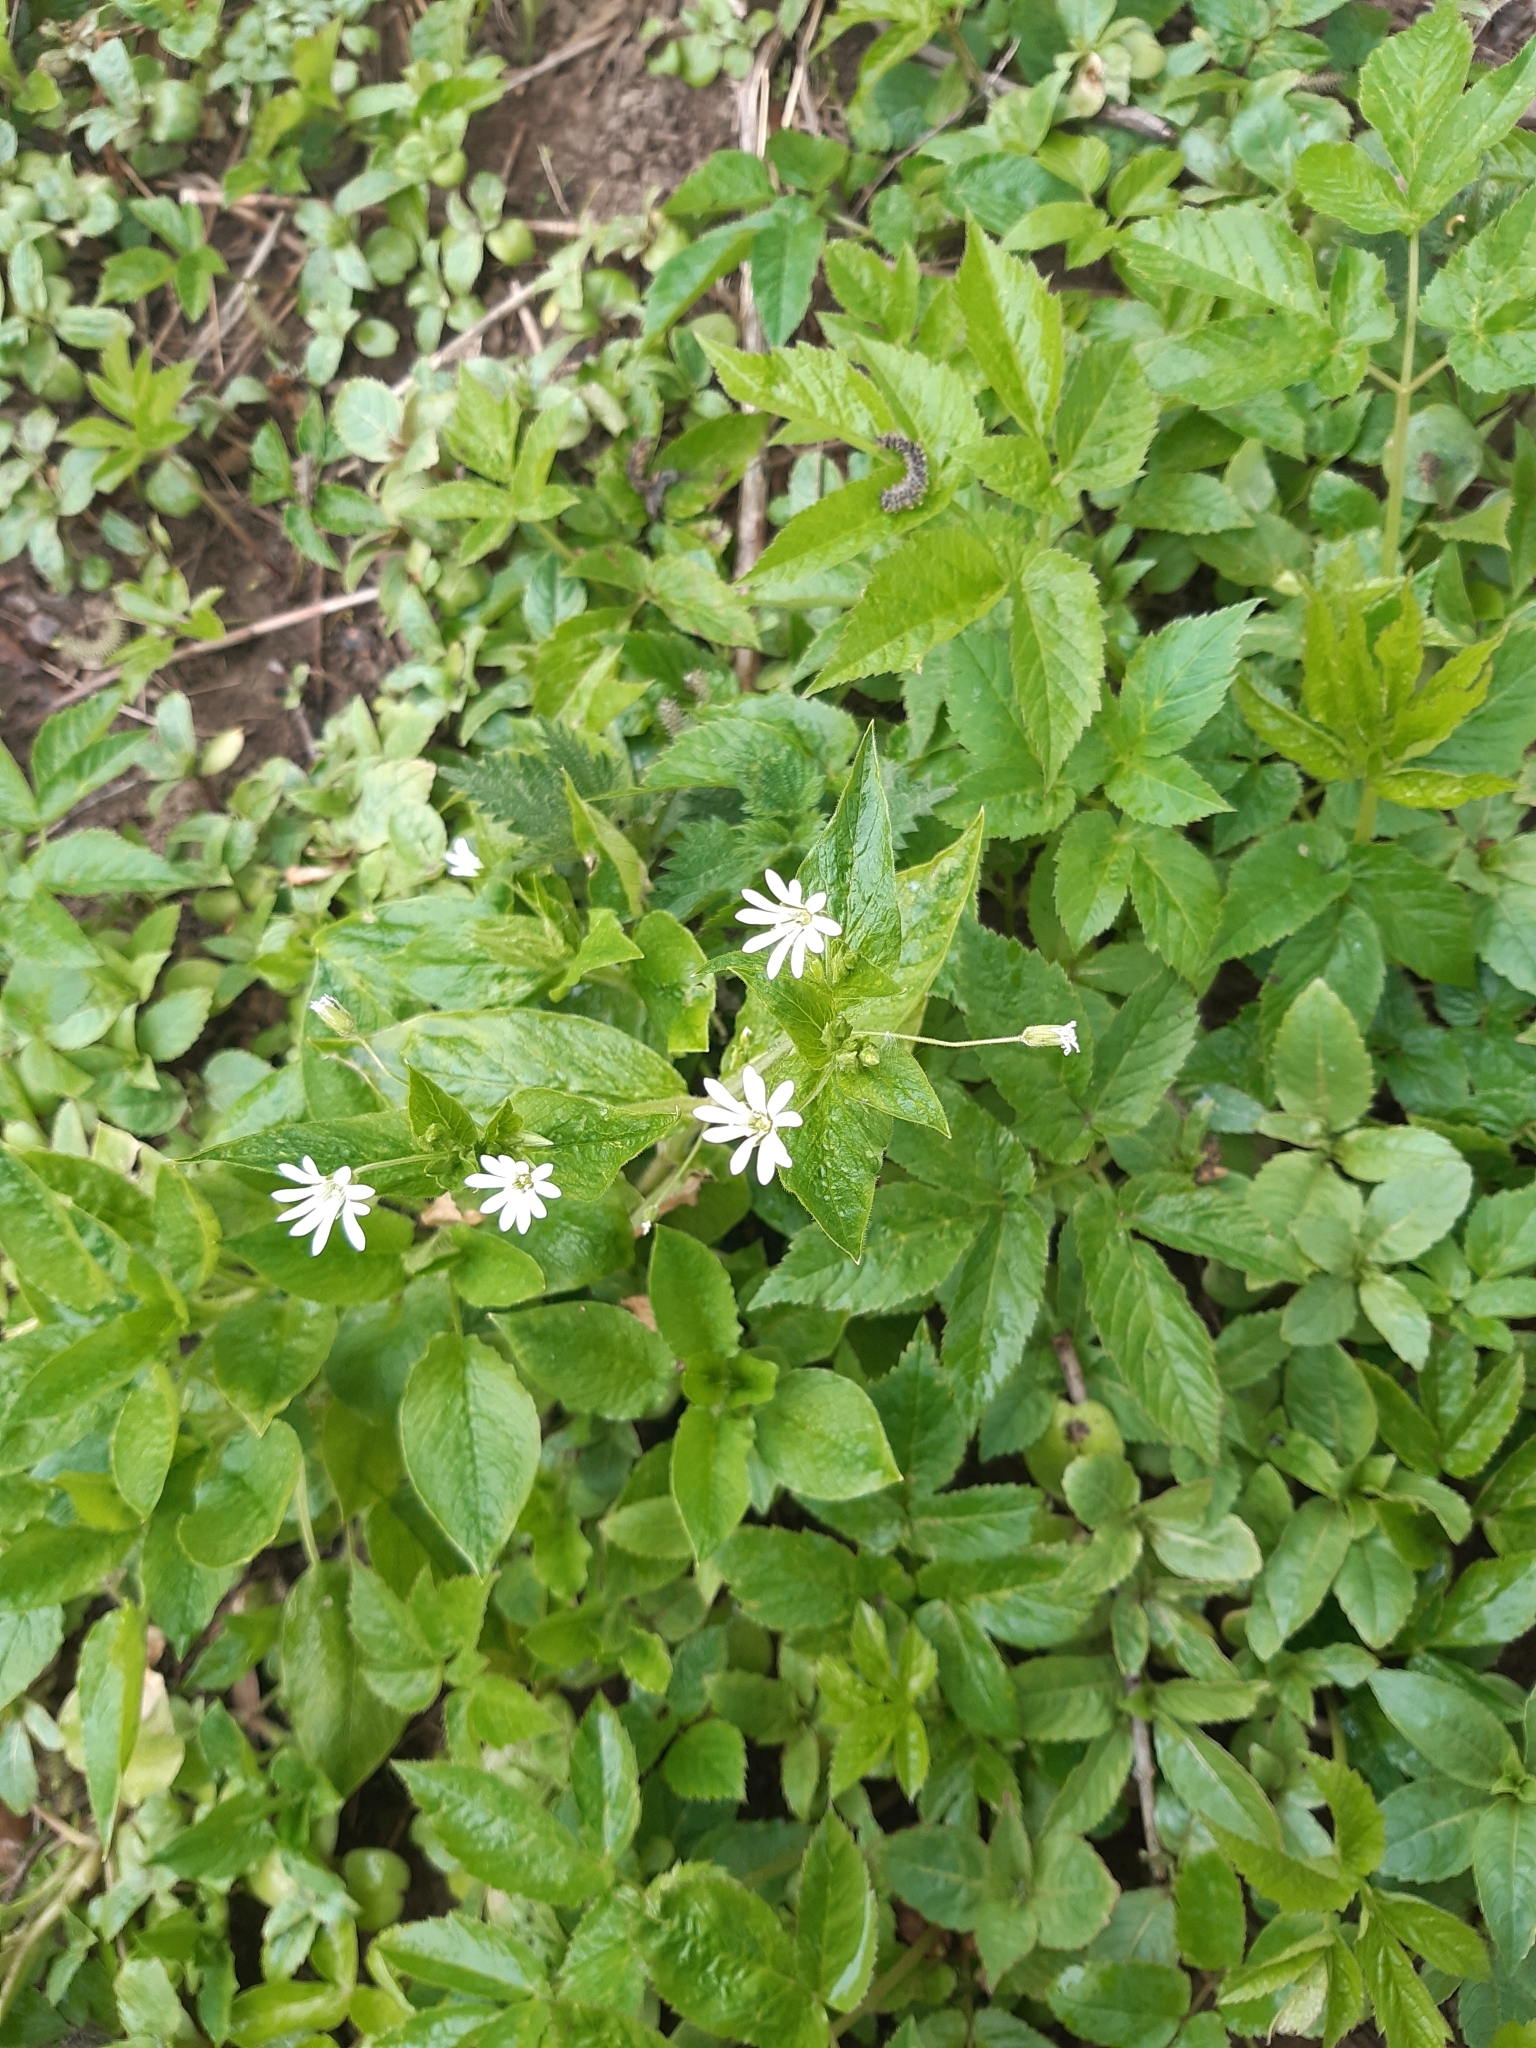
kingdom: Plantae
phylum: Tracheophyta
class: Magnoliopsida
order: Caryophyllales
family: Caryophyllaceae
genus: Stellaria
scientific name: Stellaria nemorum
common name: Wood stitchwort
